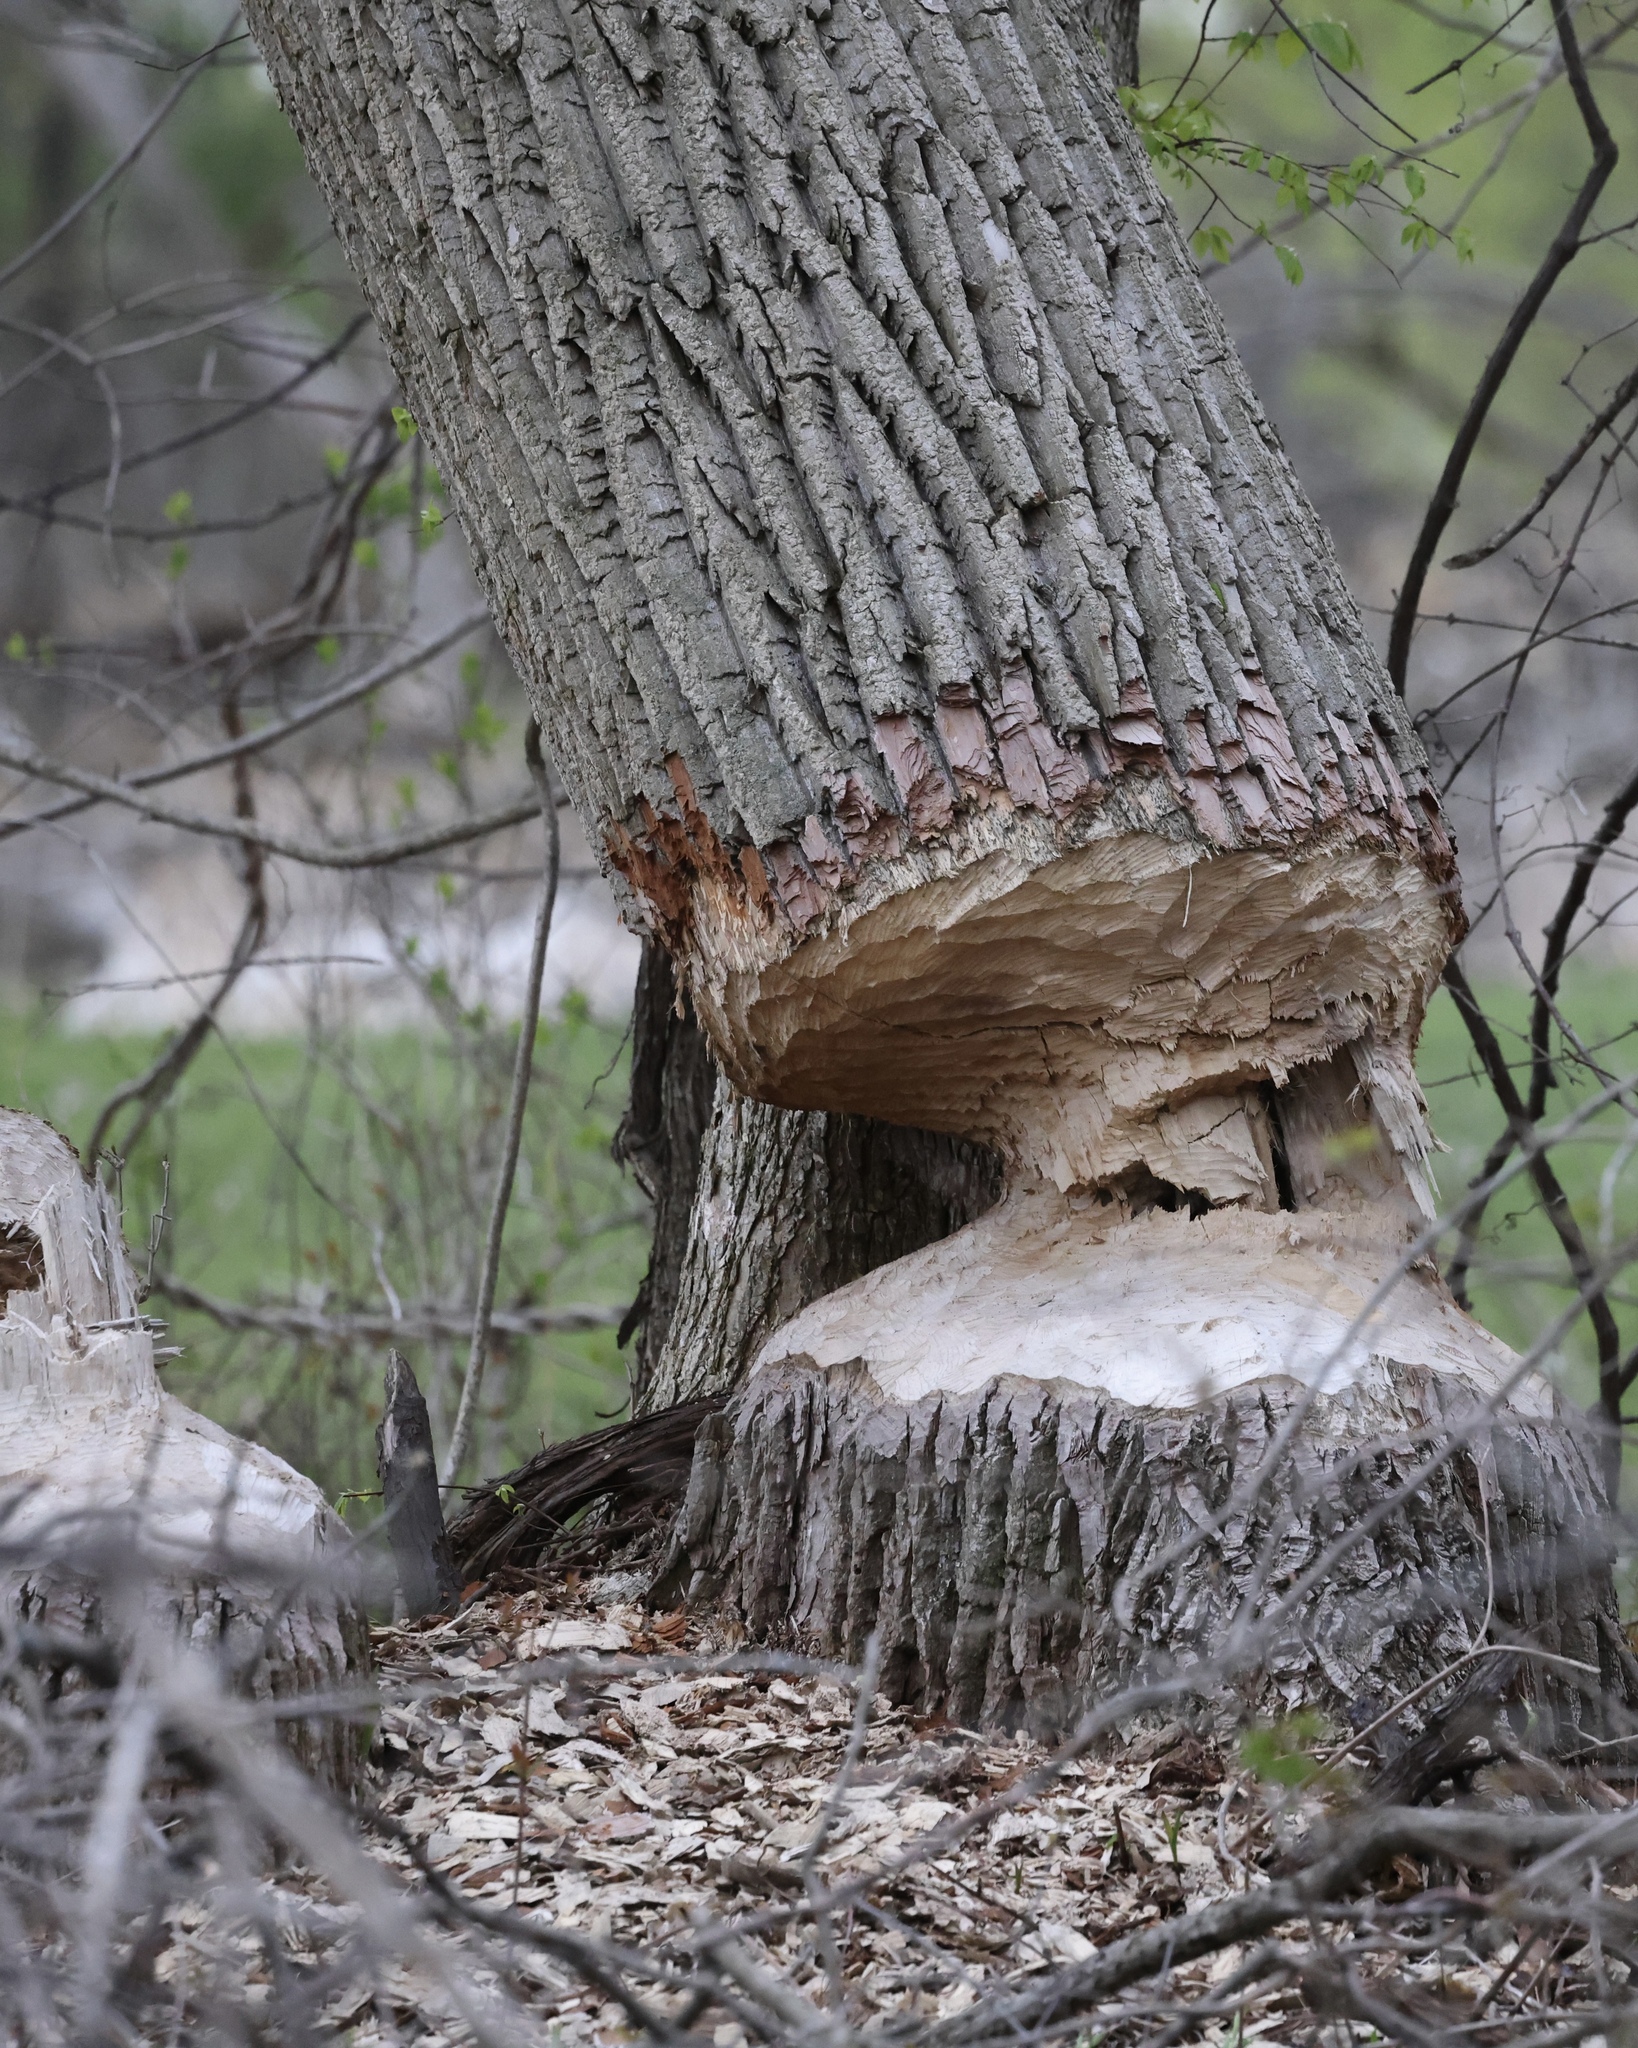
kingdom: Animalia
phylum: Chordata
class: Mammalia
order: Rodentia
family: Castoridae
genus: Castor
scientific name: Castor canadensis
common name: American beaver
